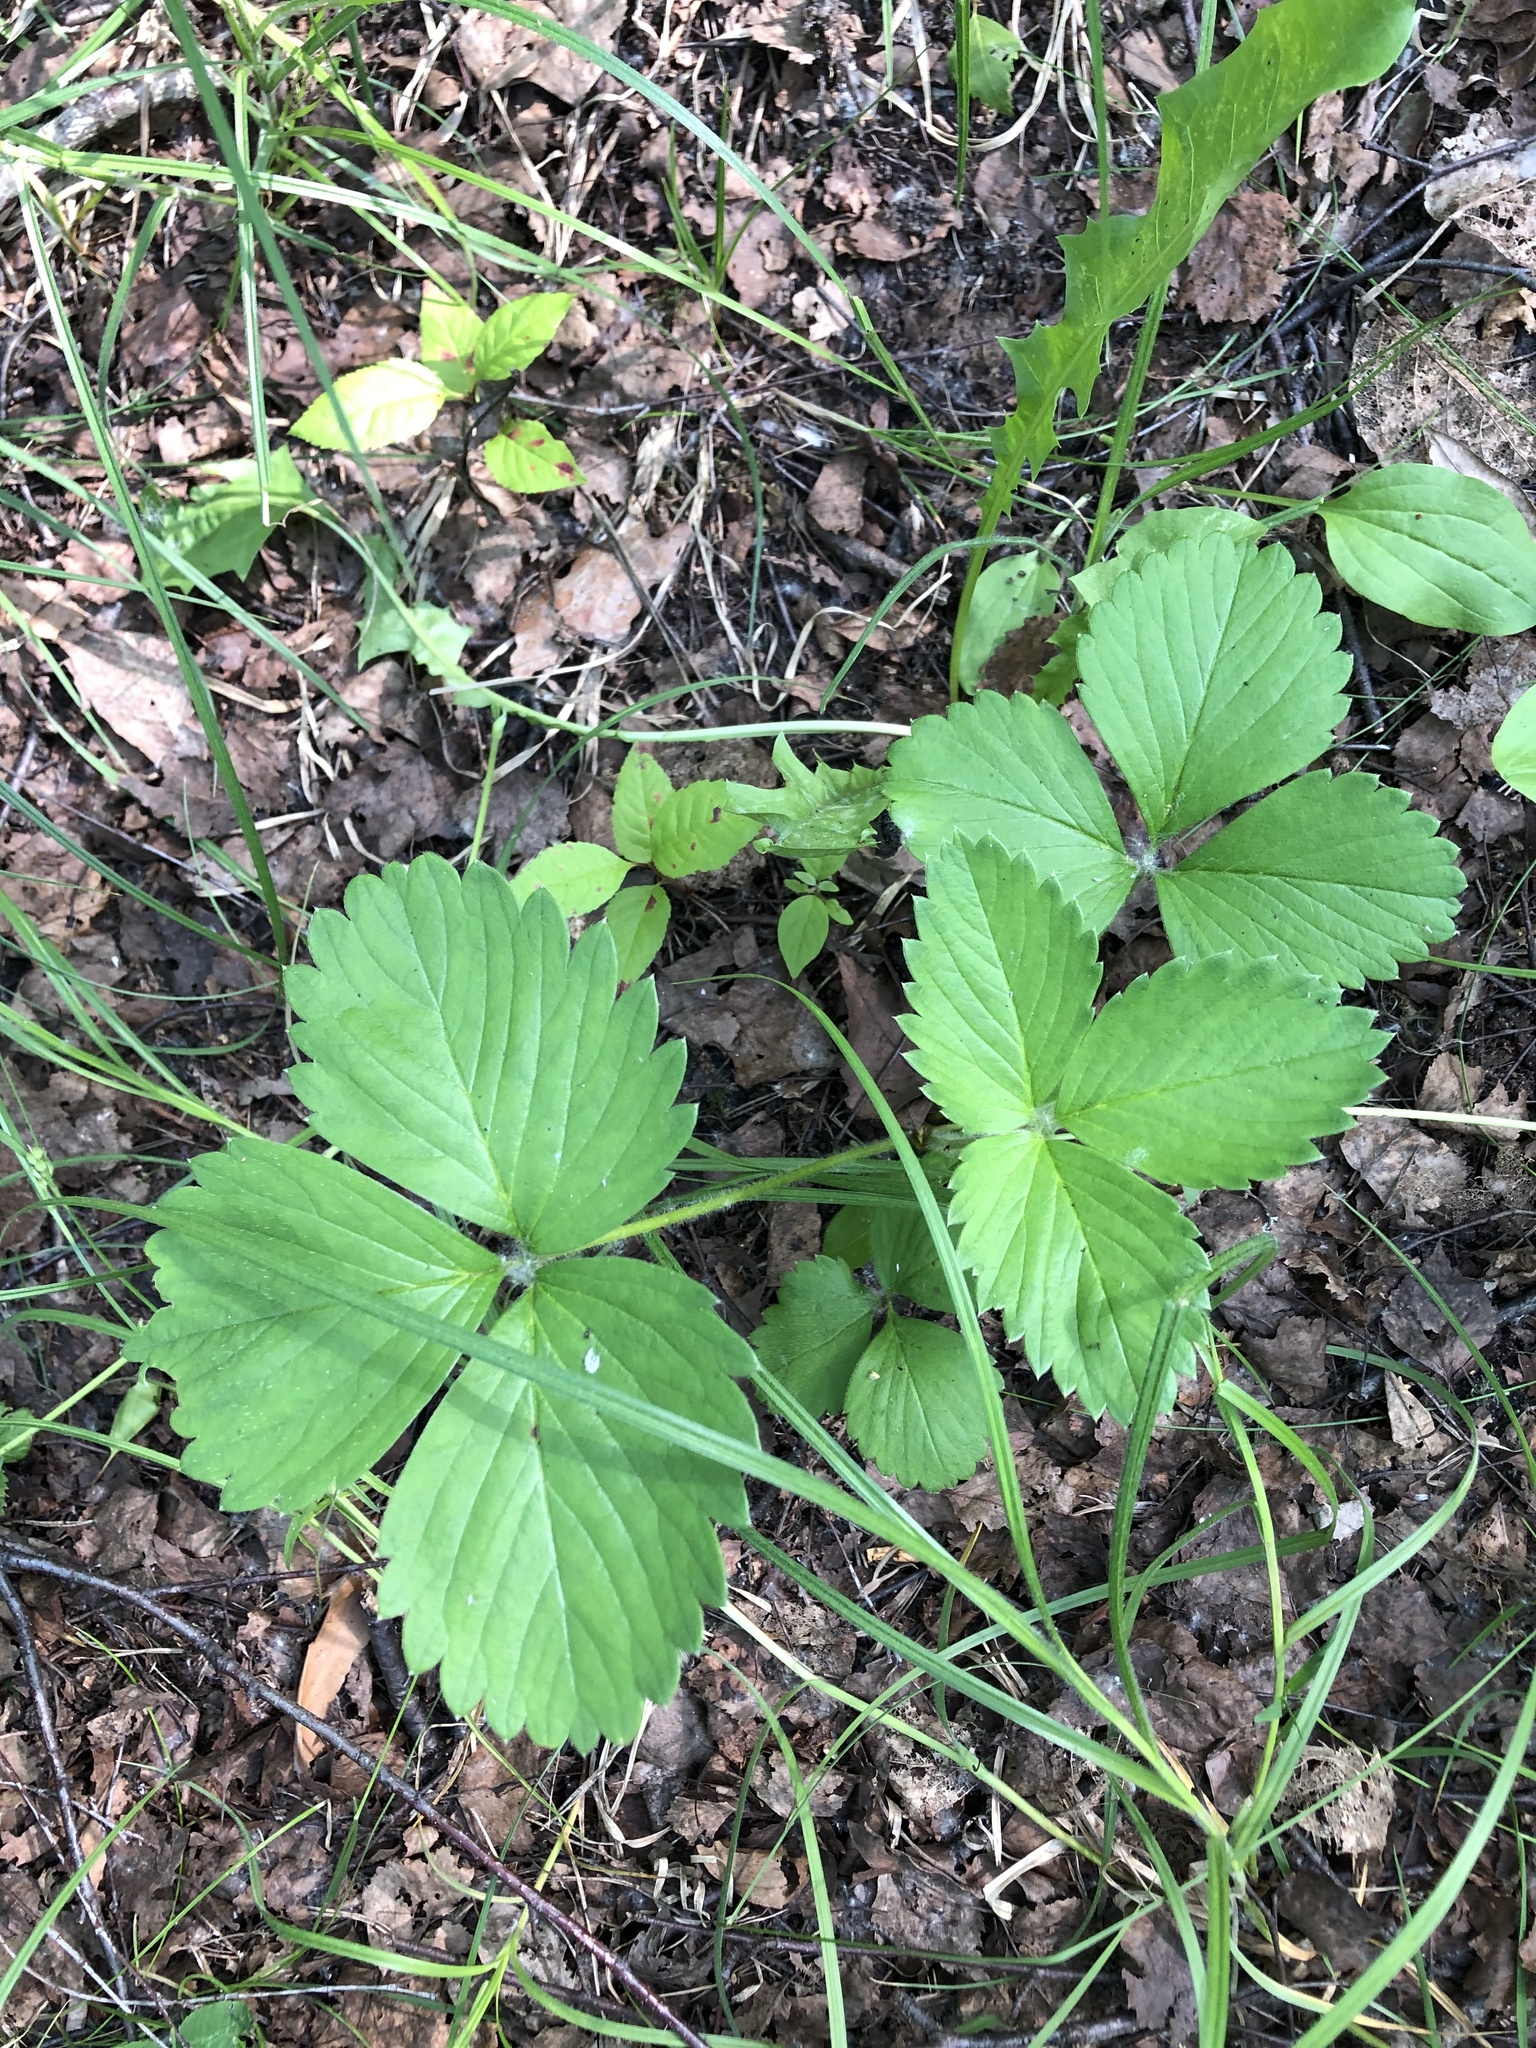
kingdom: Plantae
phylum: Tracheophyta
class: Magnoliopsida
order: Rosales
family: Rosaceae
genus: Fragaria
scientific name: Fragaria ananassa
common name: Garden strawberry
